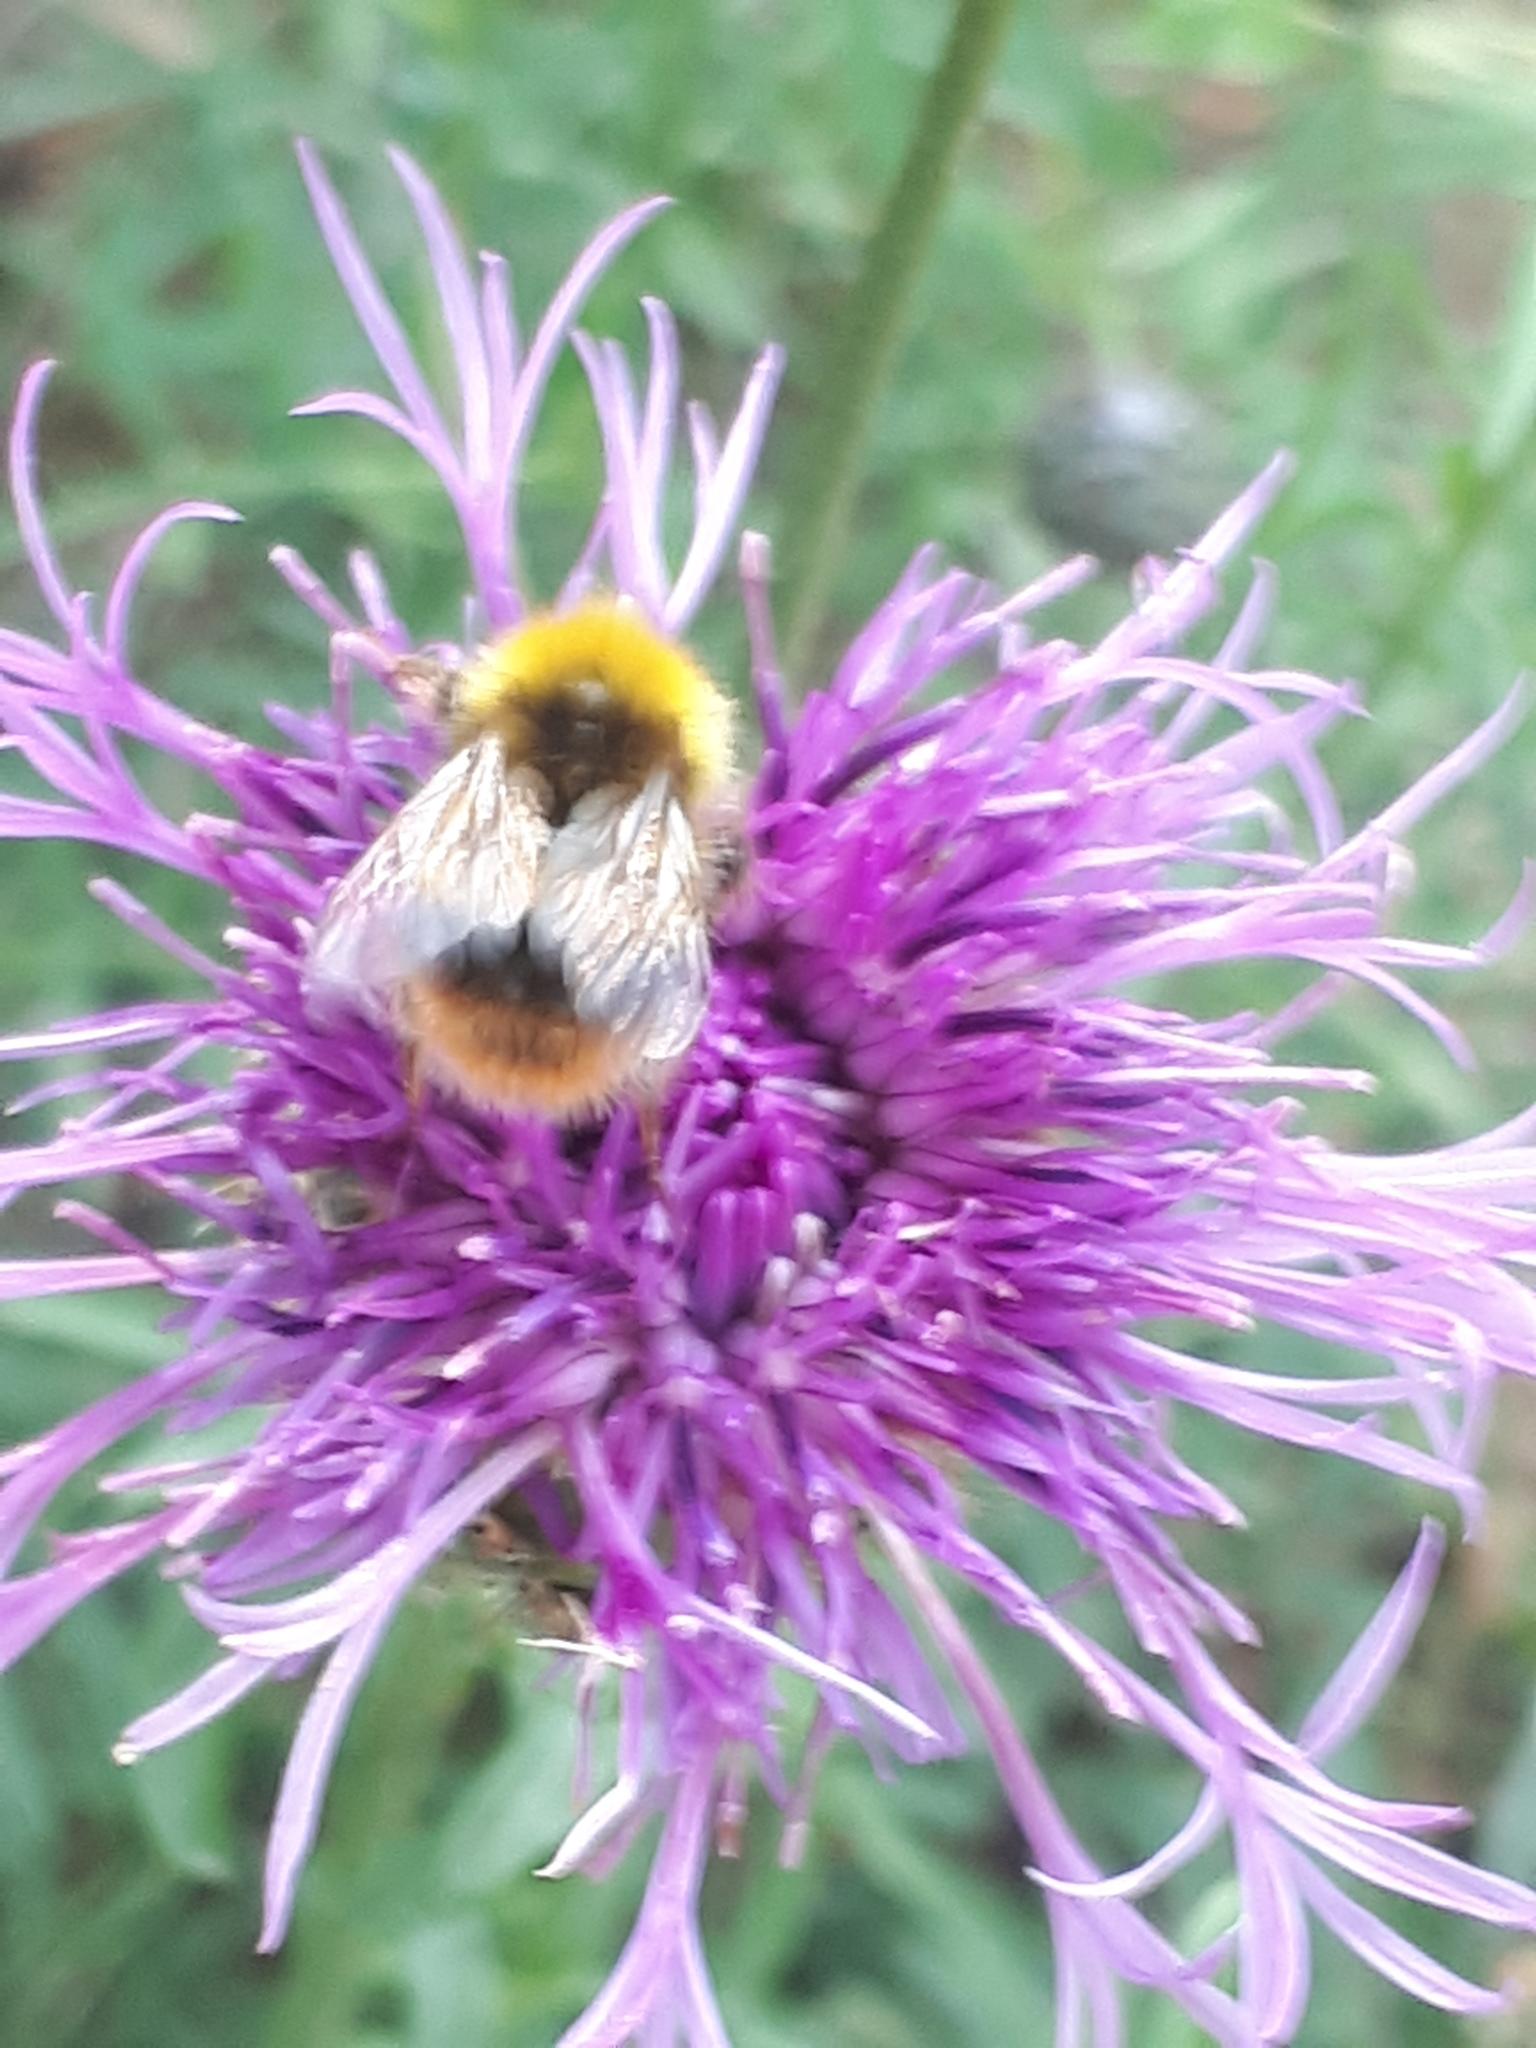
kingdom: Animalia
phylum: Arthropoda
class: Insecta
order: Hymenoptera
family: Apidae
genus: Bombus
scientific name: Bombus pratorum
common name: Early humble-bee
